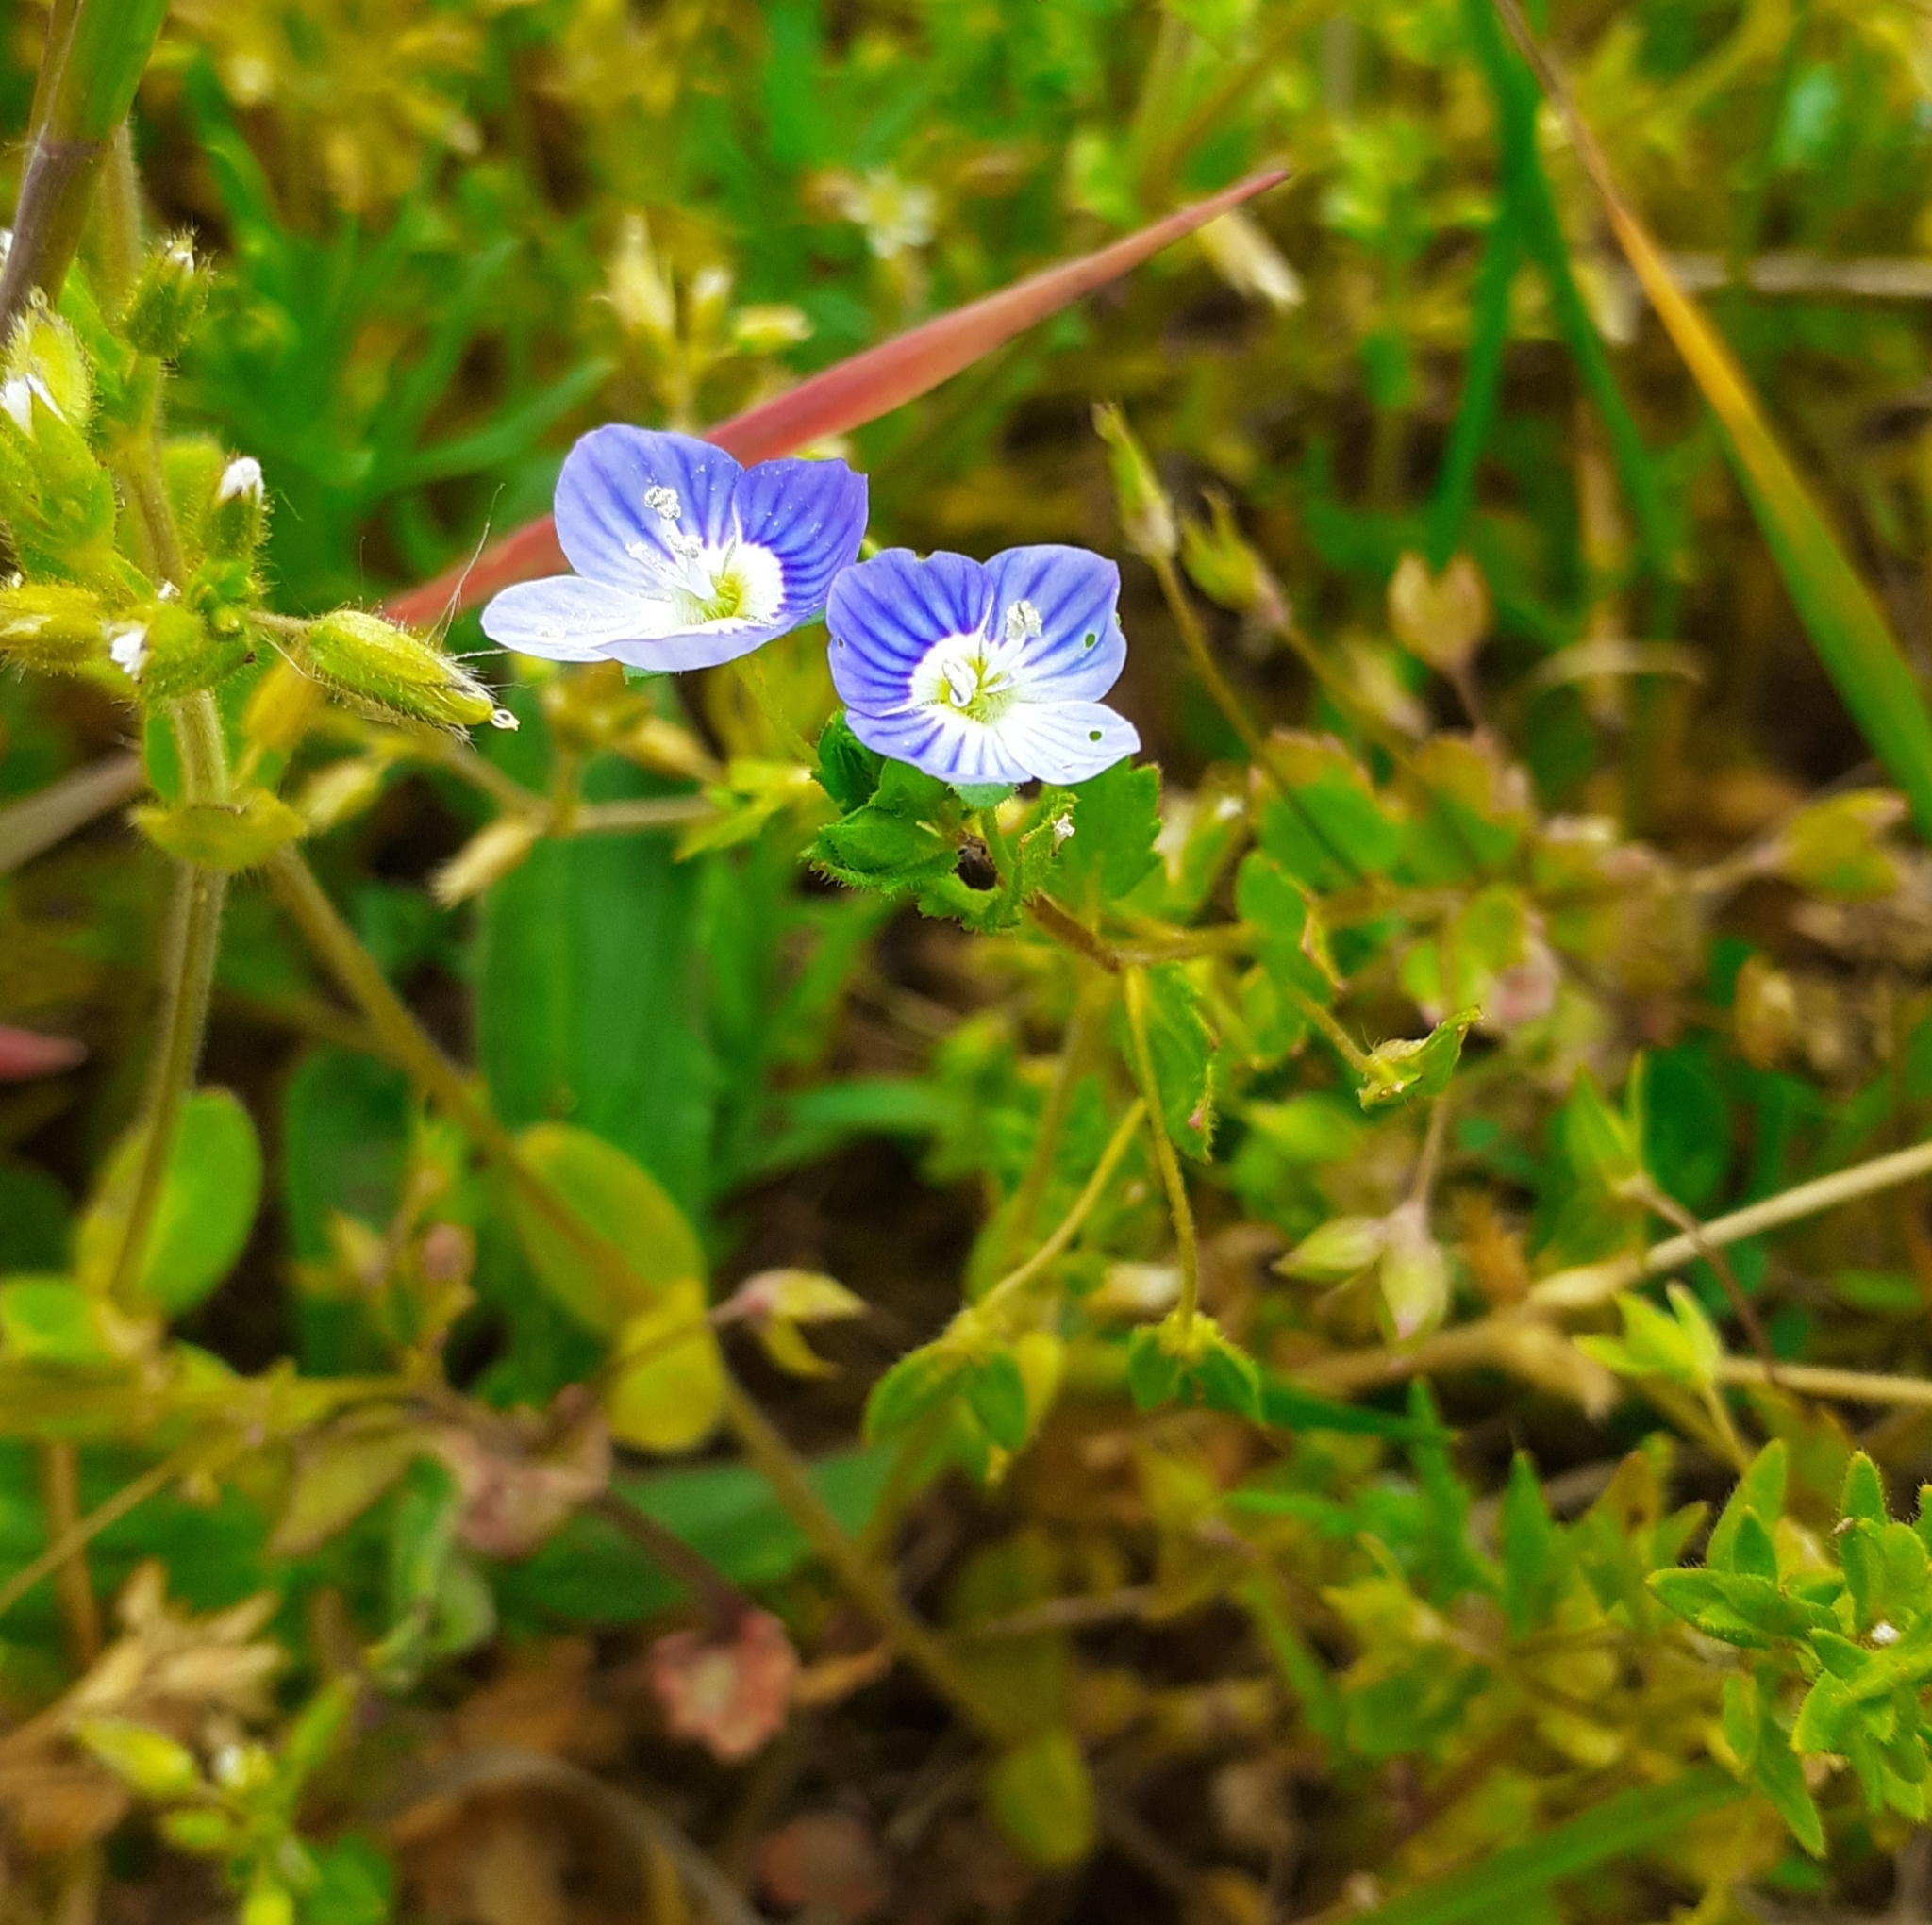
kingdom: Plantae
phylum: Tracheophyta
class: Magnoliopsida
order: Lamiales
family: Plantaginaceae
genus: Veronica
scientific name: Veronica persica
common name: Common field-speedwell
